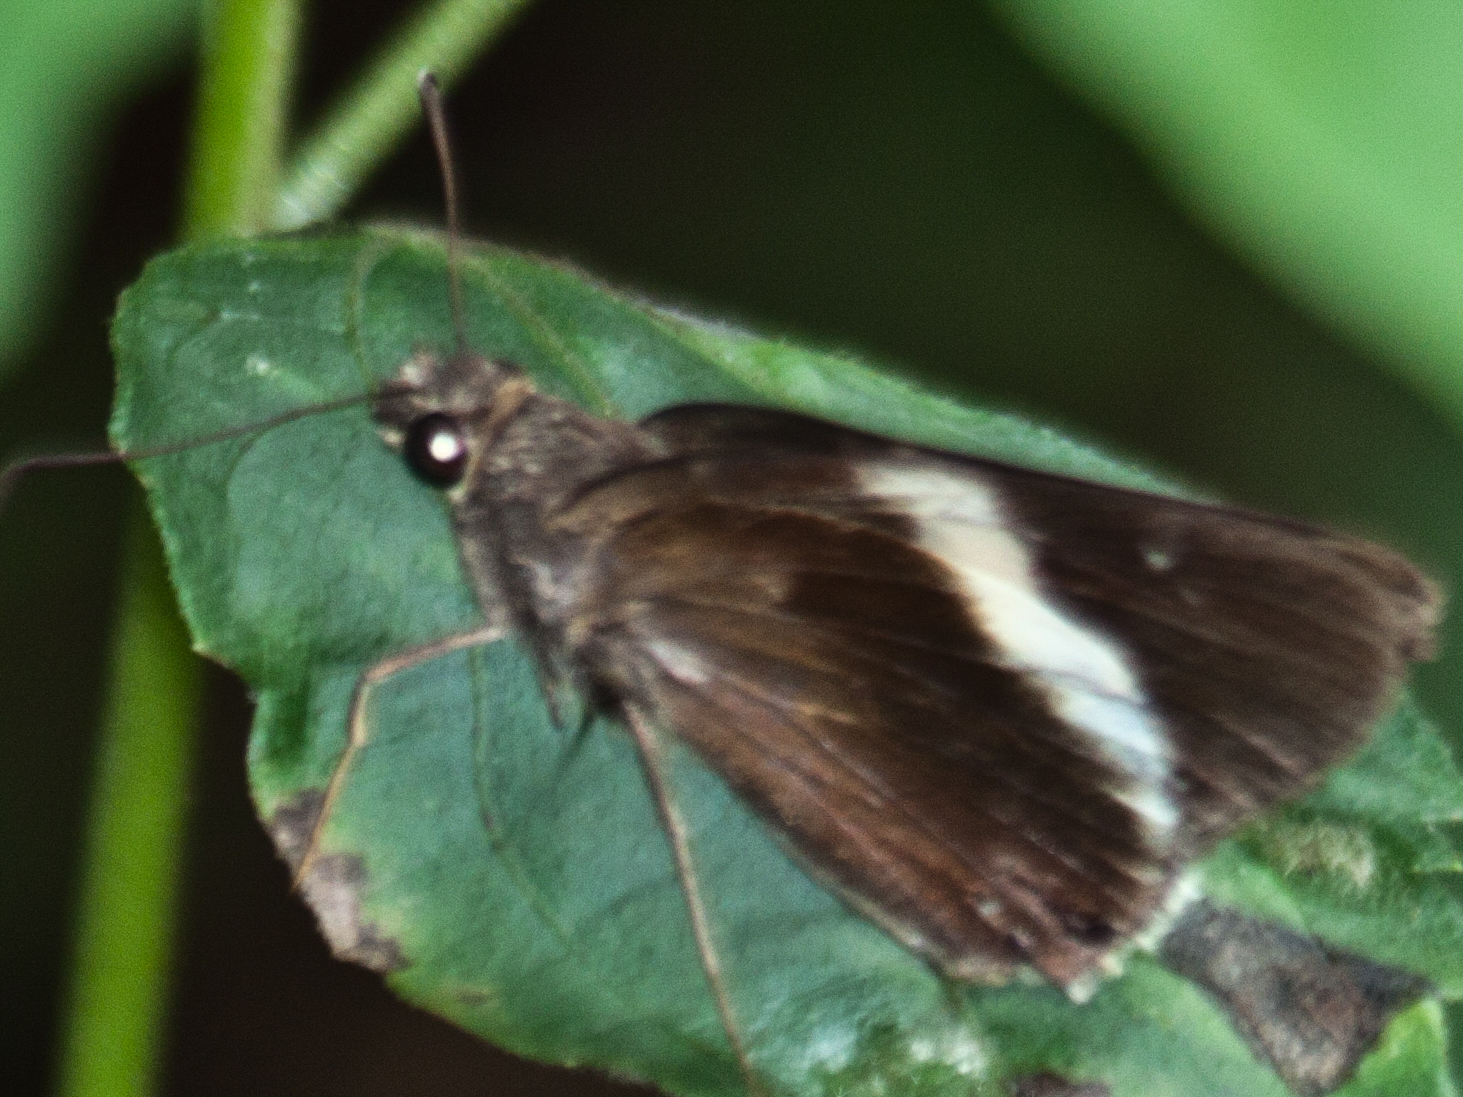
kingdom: Animalia
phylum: Arthropoda
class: Insecta
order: Lepidoptera
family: Hesperiidae
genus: Lotongus
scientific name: Lotongus calathus
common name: White-tipped palmer
